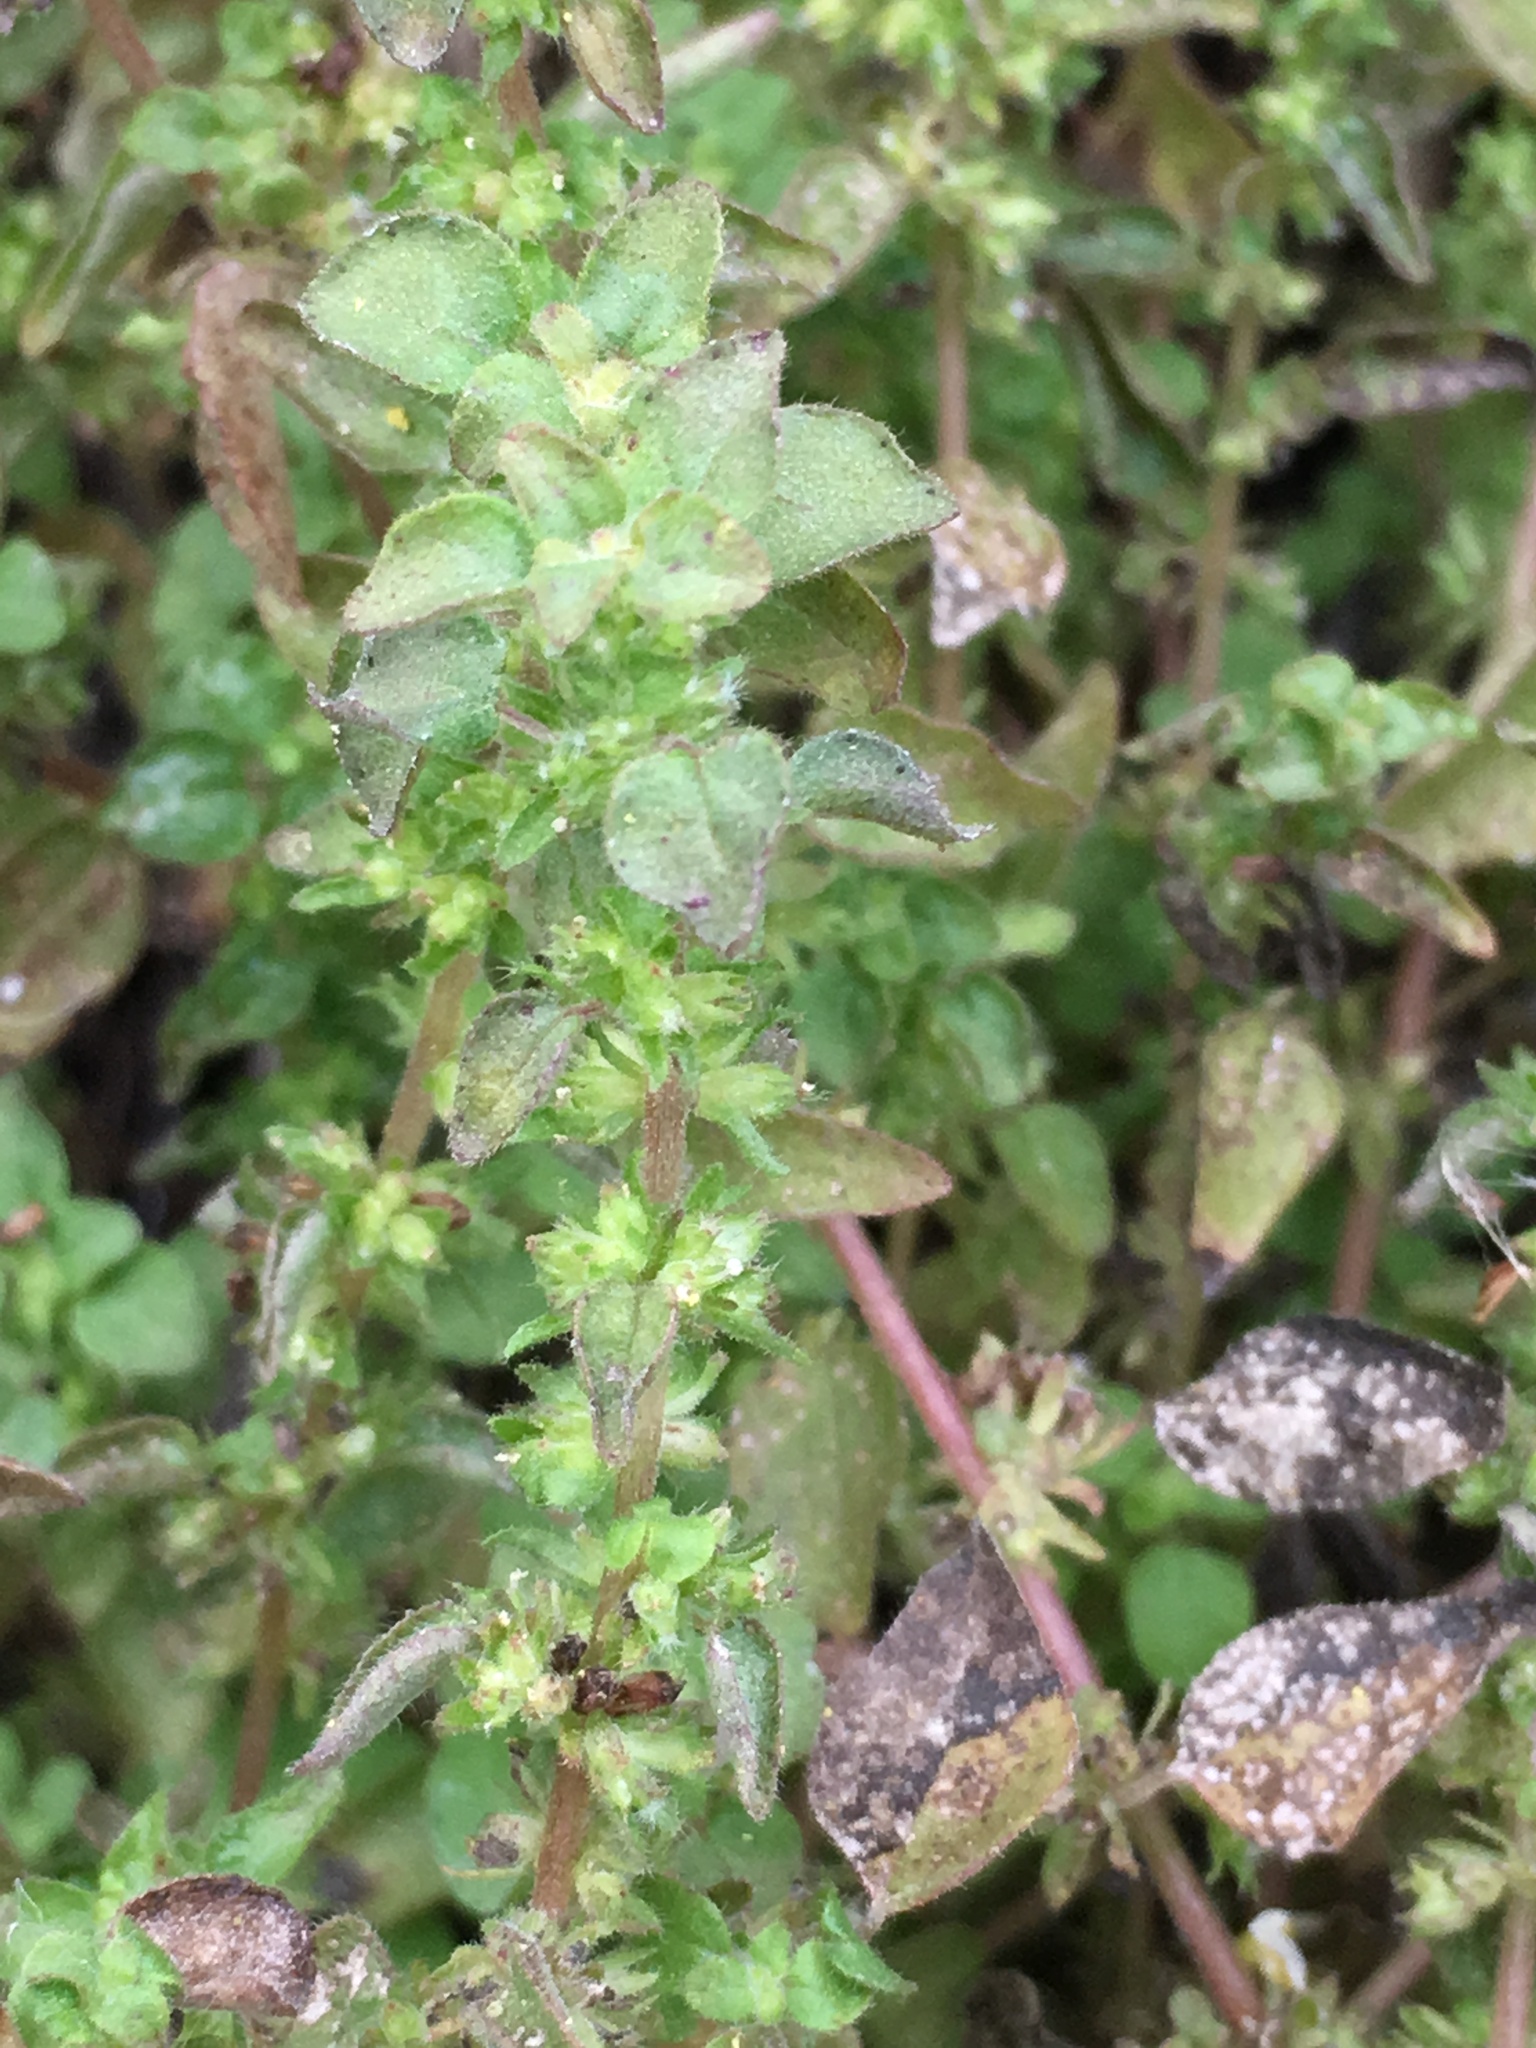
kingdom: Plantae
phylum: Tracheophyta
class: Magnoliopsida
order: Rosales
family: Urticaceae
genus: Parietaria
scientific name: Parietaria hespera
